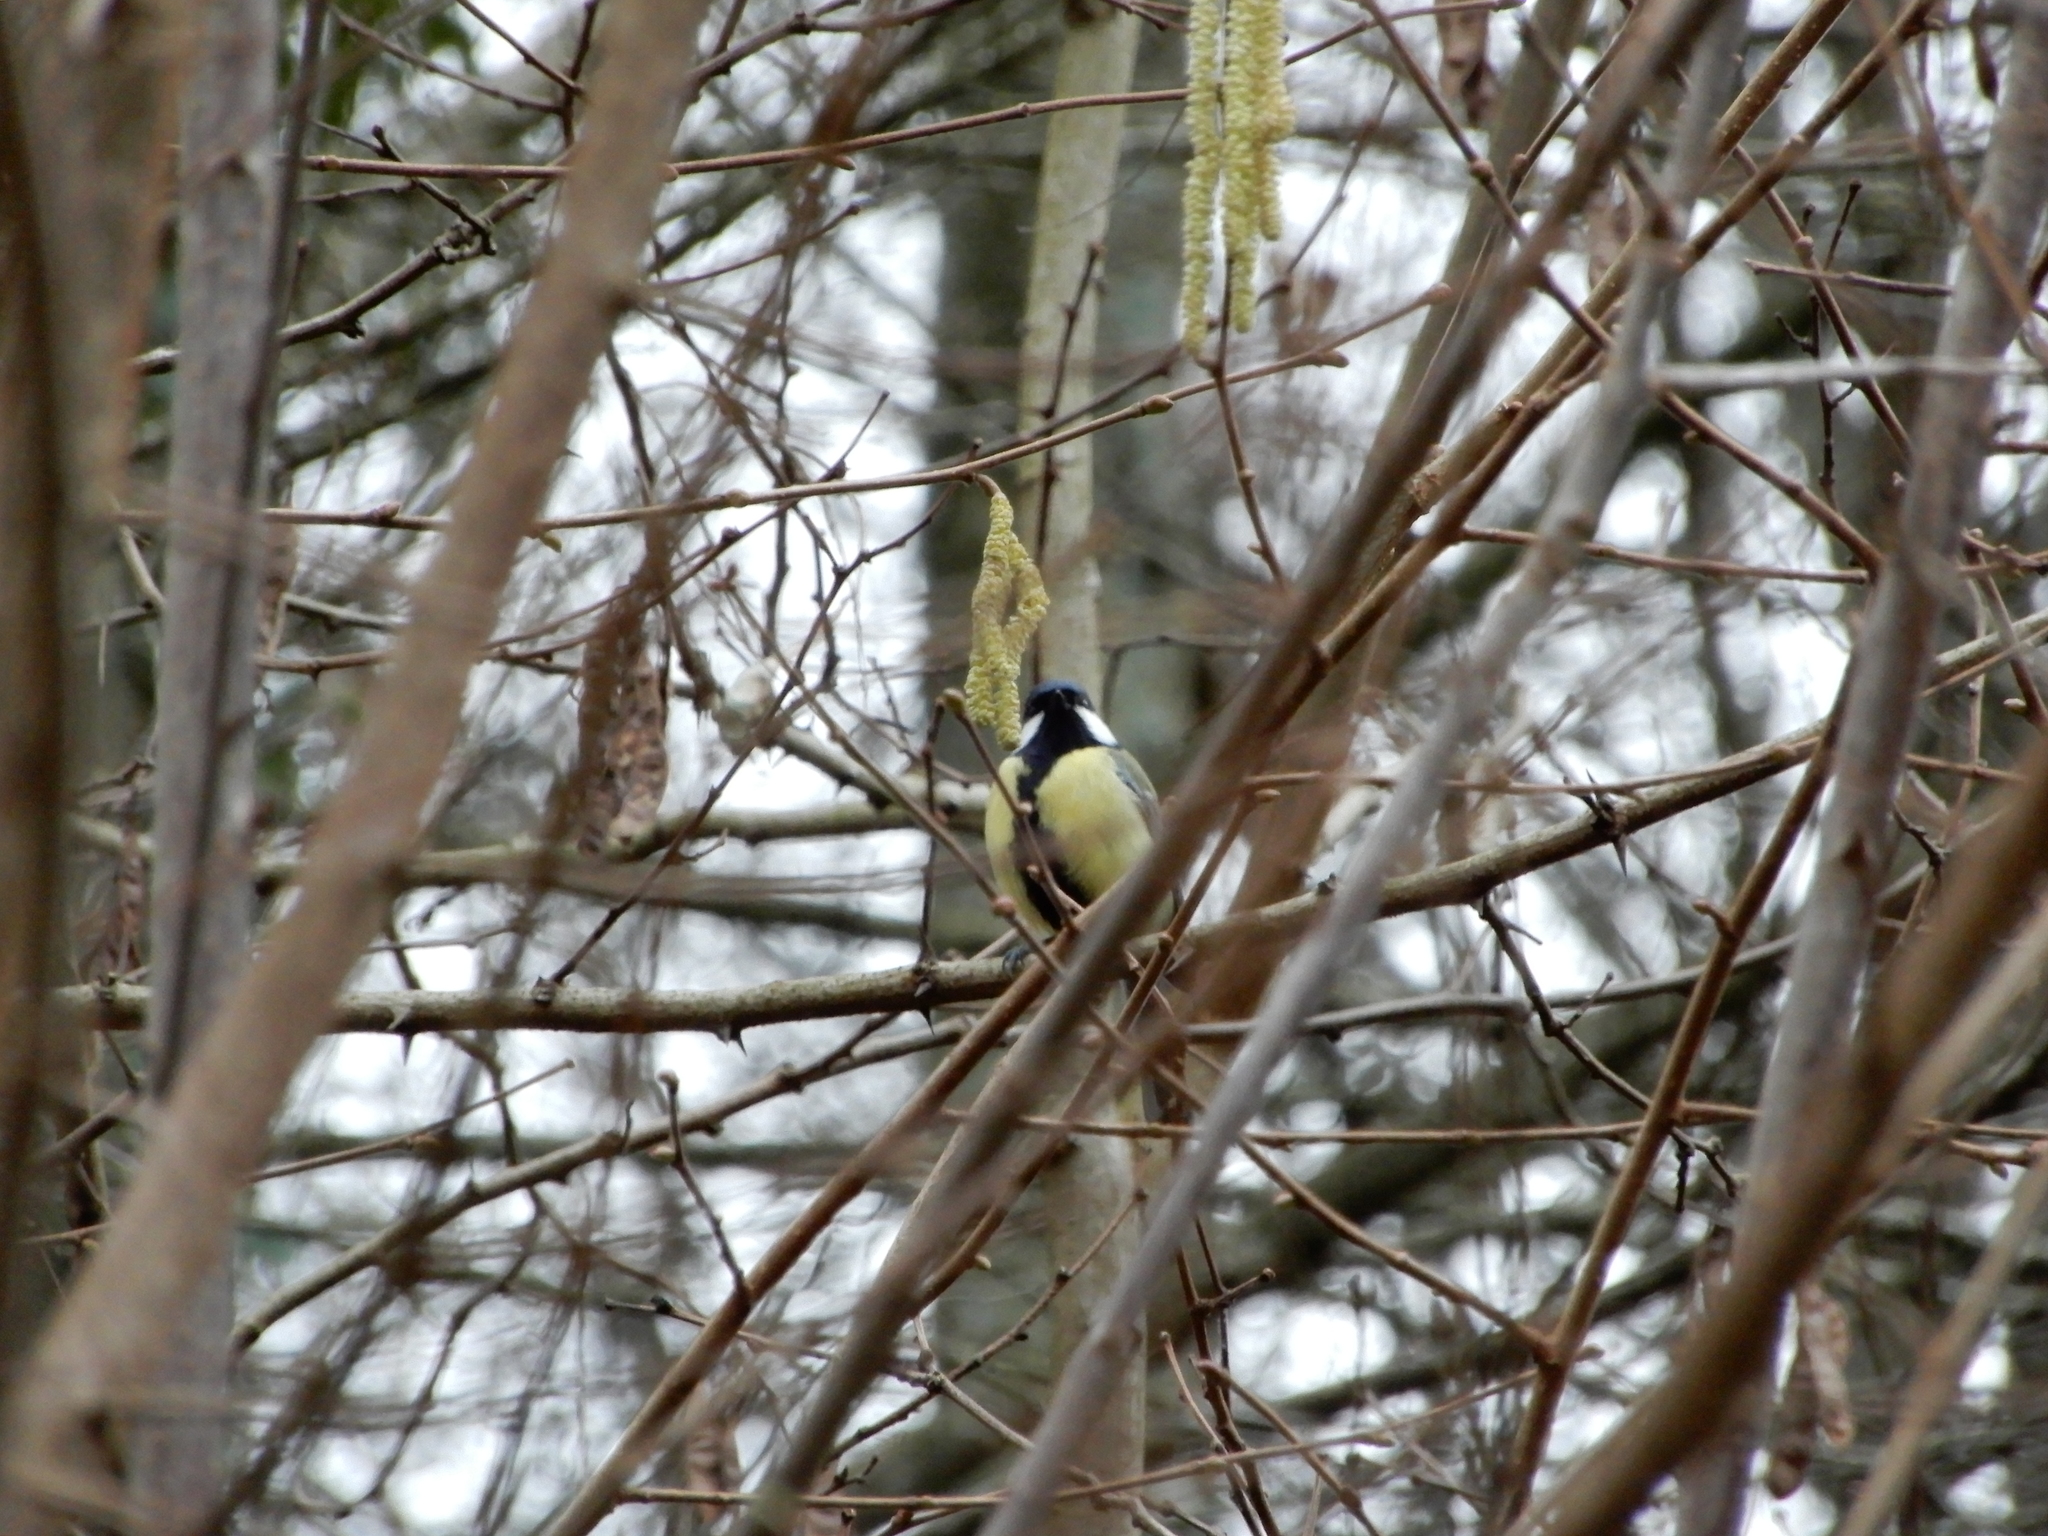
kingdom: Animalia
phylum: Chordata
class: Aves
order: Passeriformes
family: Paridae
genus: Parus
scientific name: Parus major
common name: Great tit
